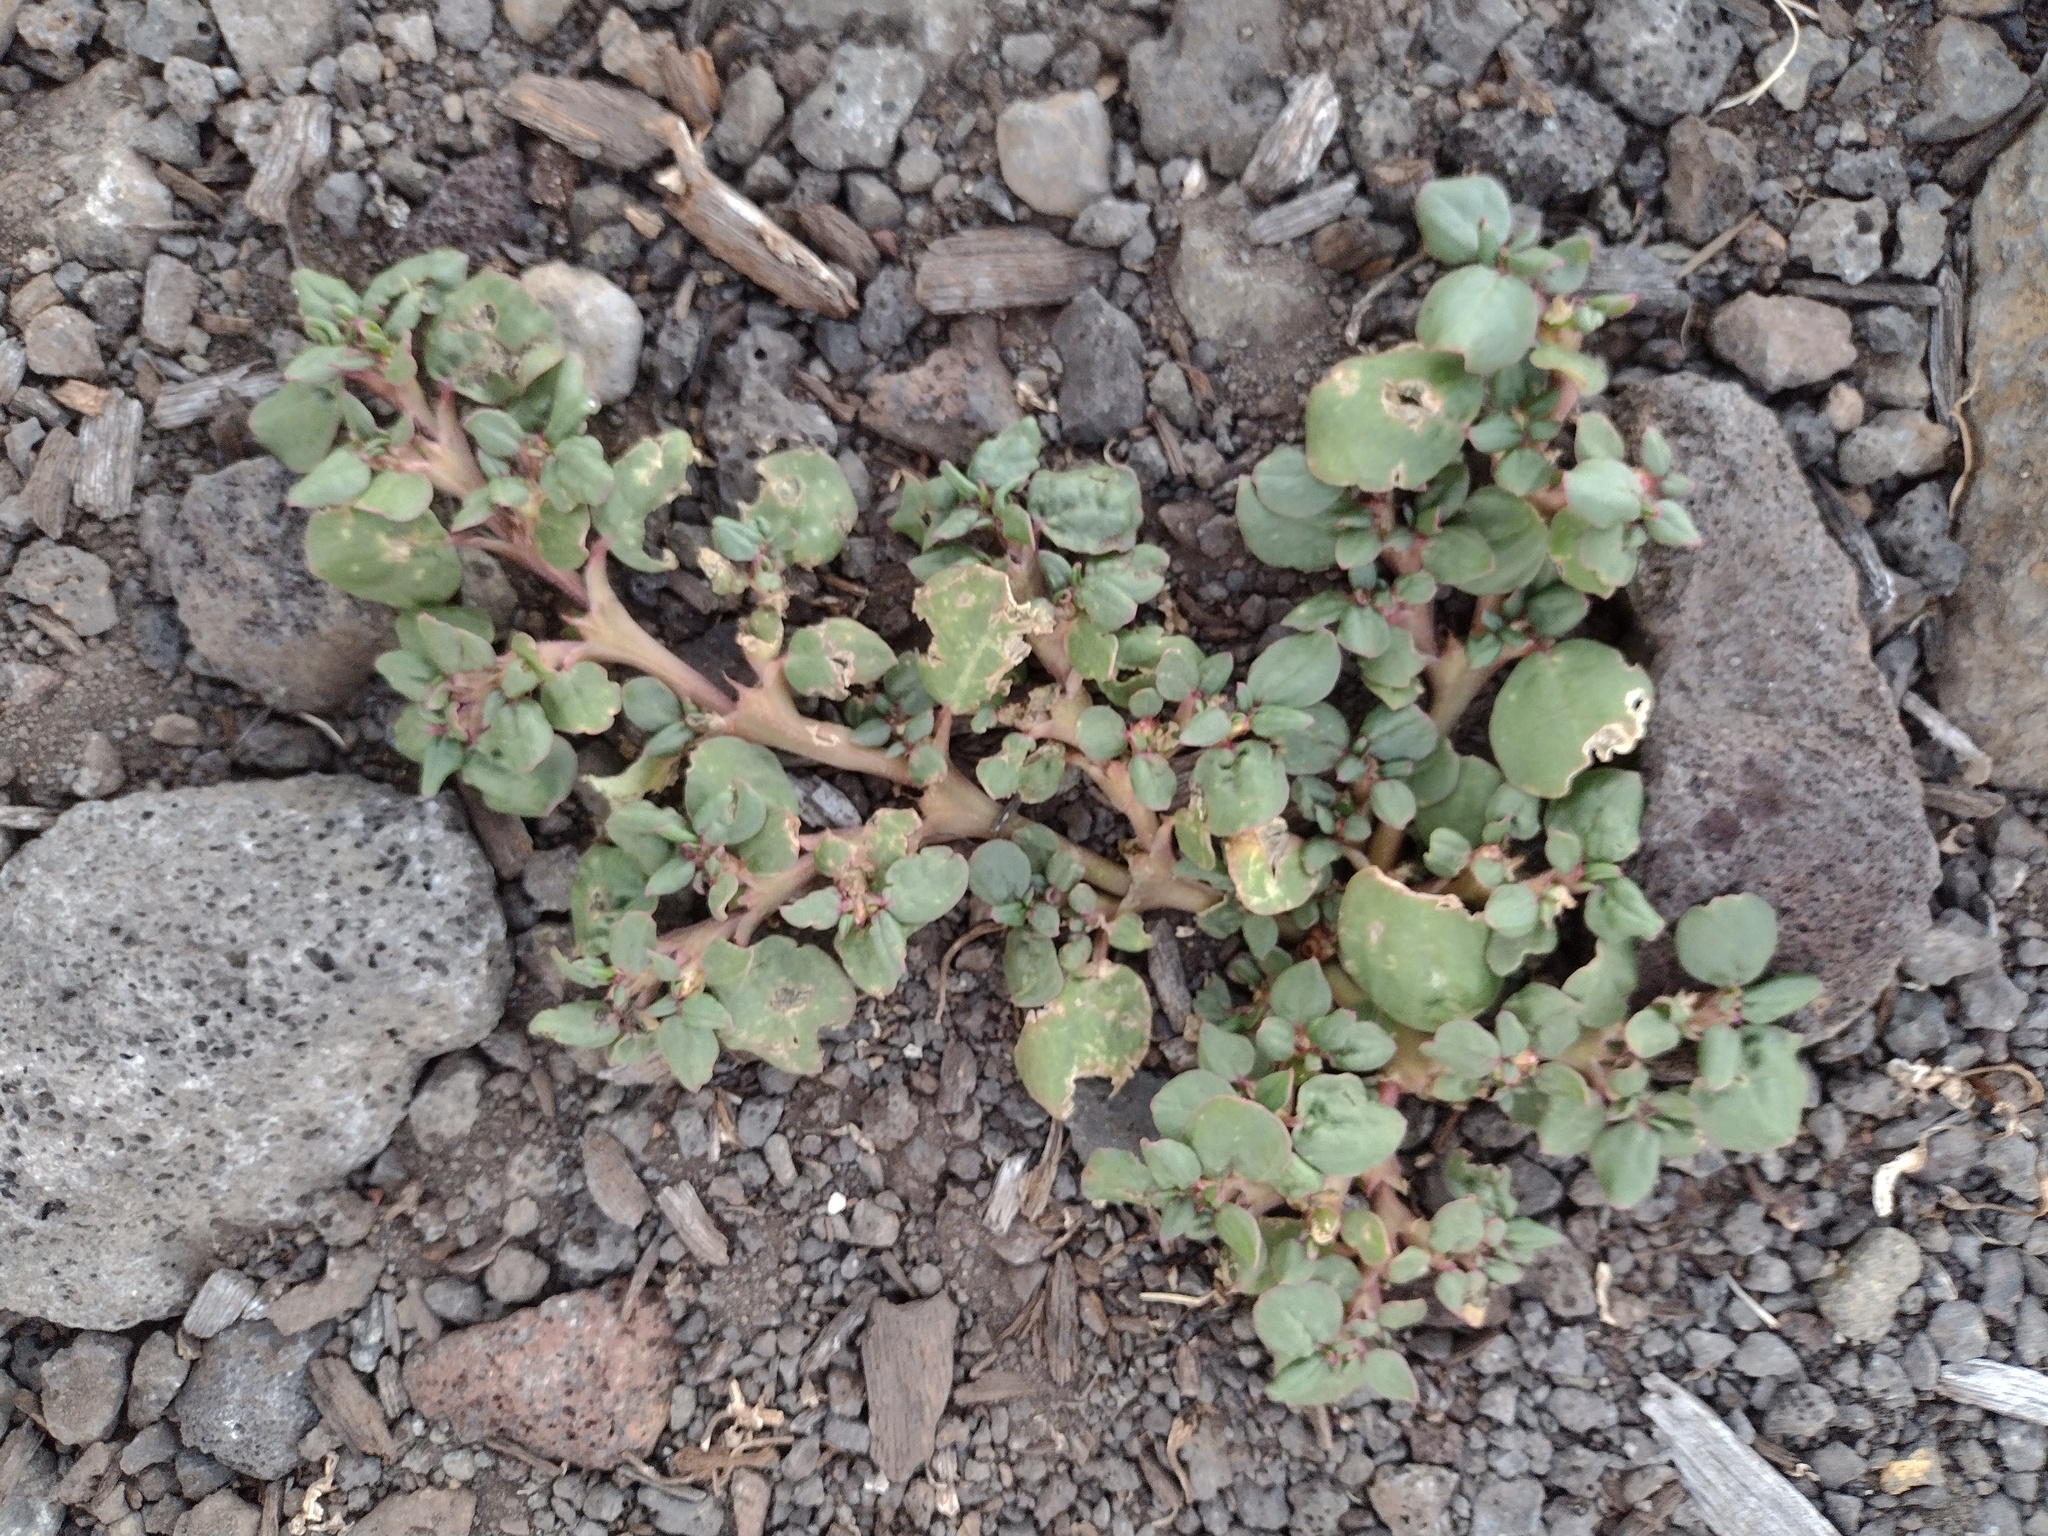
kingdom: Plantae
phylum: Tracheophyta
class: Magnoliopsida
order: Caryophyllales
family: Aizoaceae
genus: Trianthema
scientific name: Trianthema portulacastrum
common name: Desert horsepurslane
